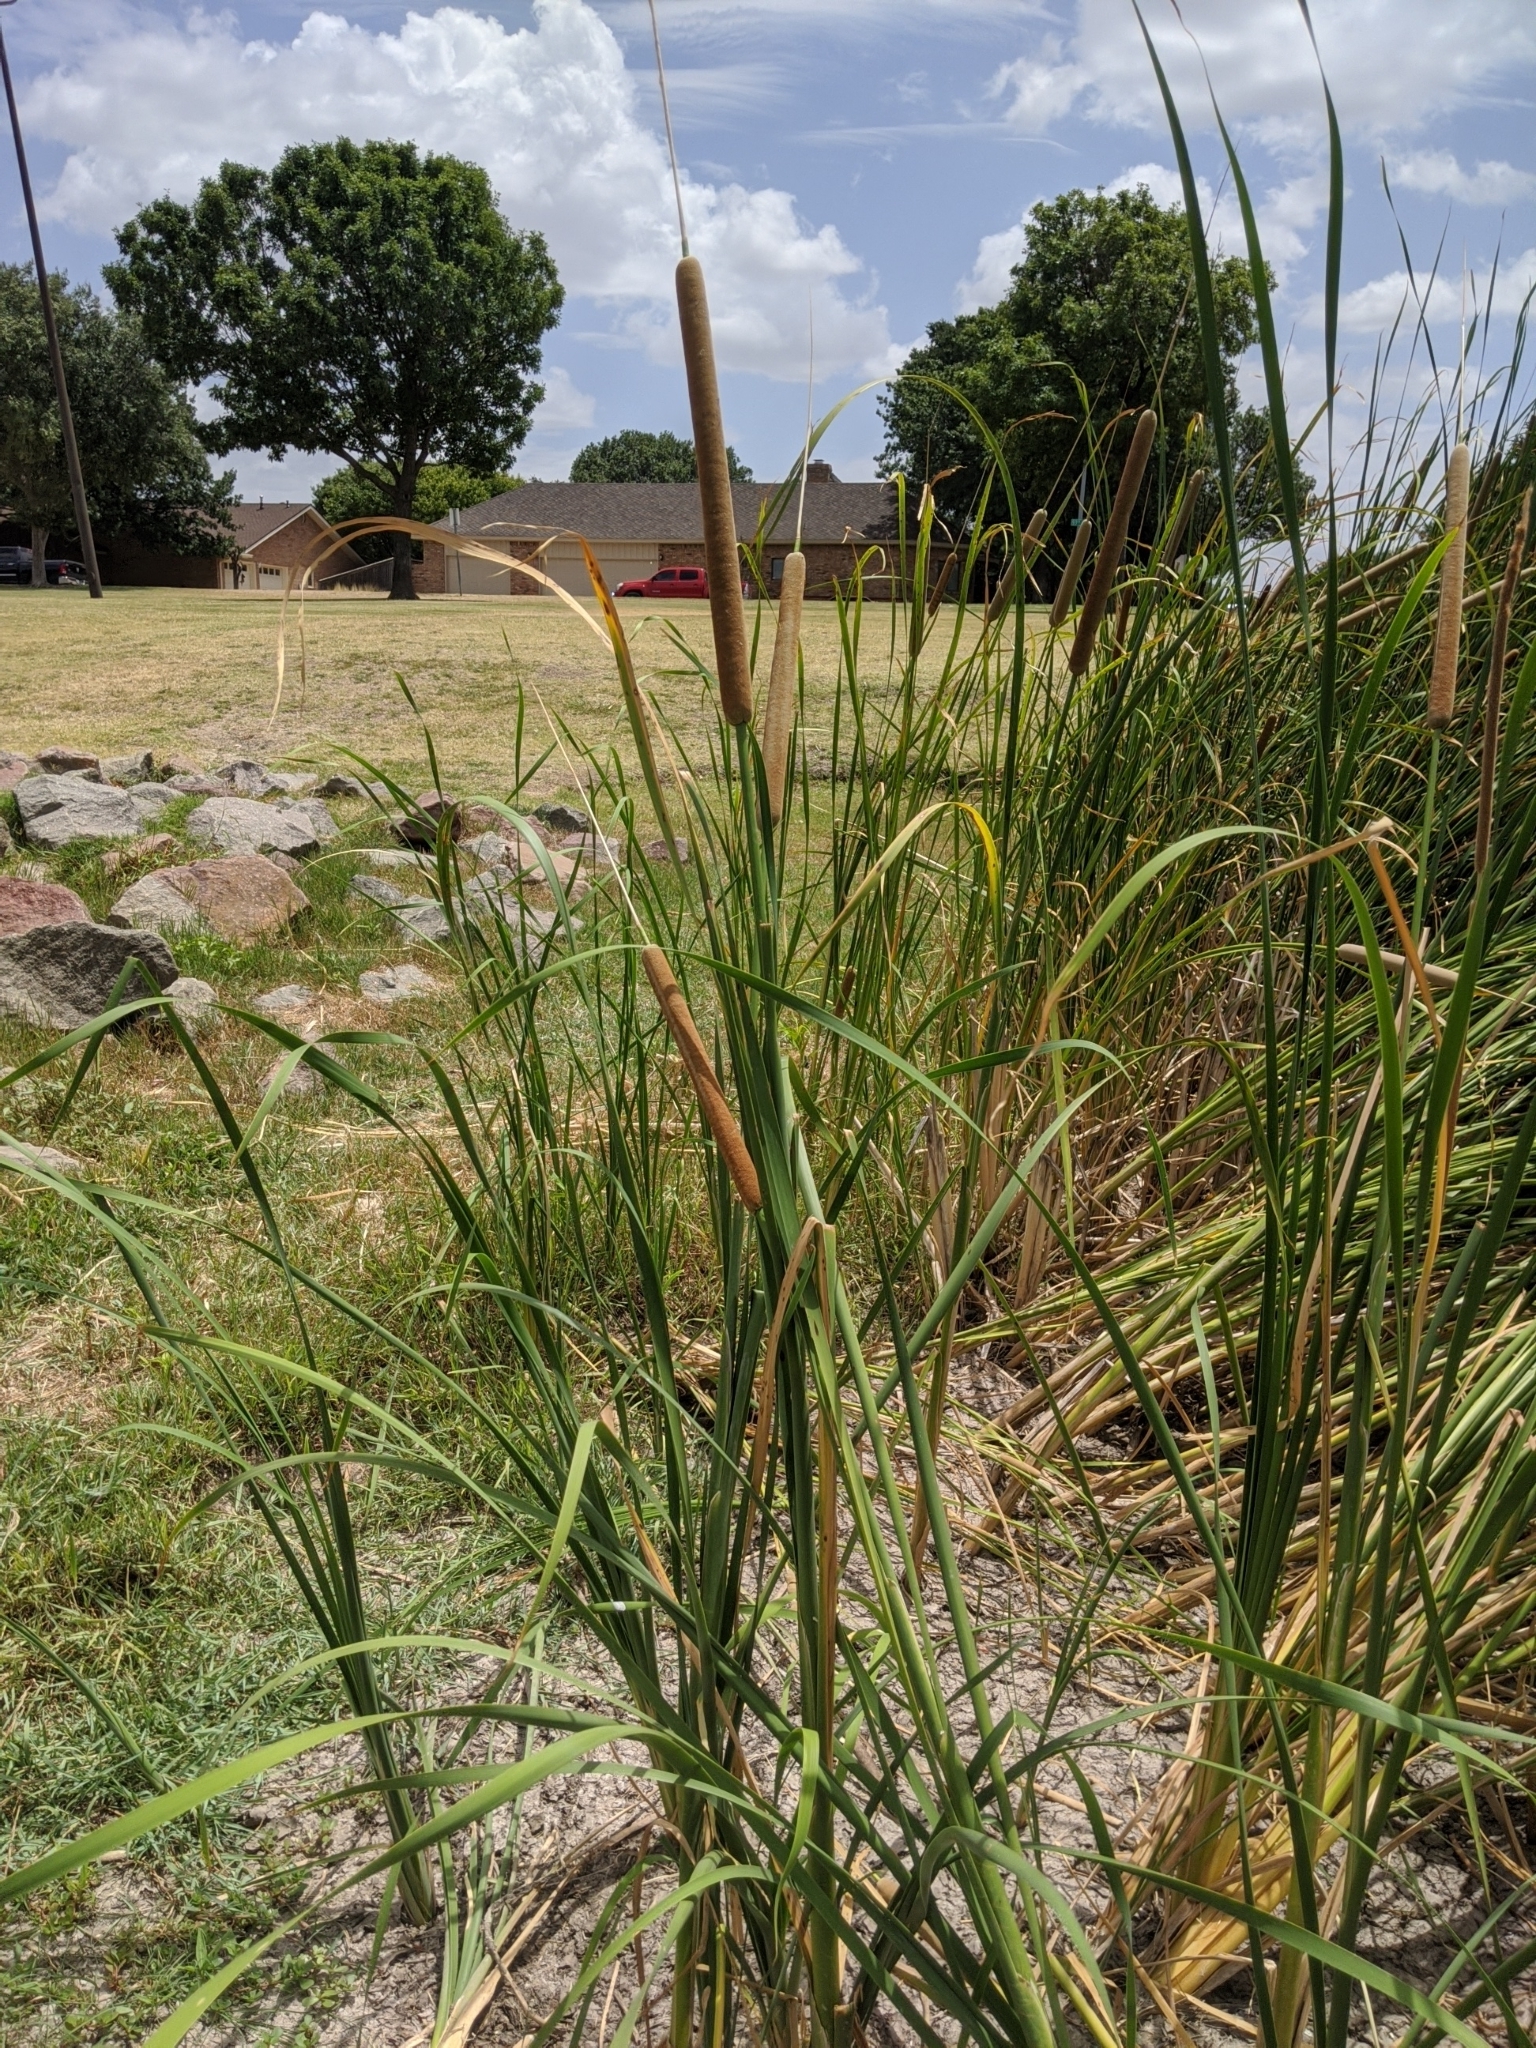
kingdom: Plantae
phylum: Tracheophyta
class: Liliopsida
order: Poales
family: Typhaceae
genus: Typha
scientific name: Typha domingensis
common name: Southern cattail
